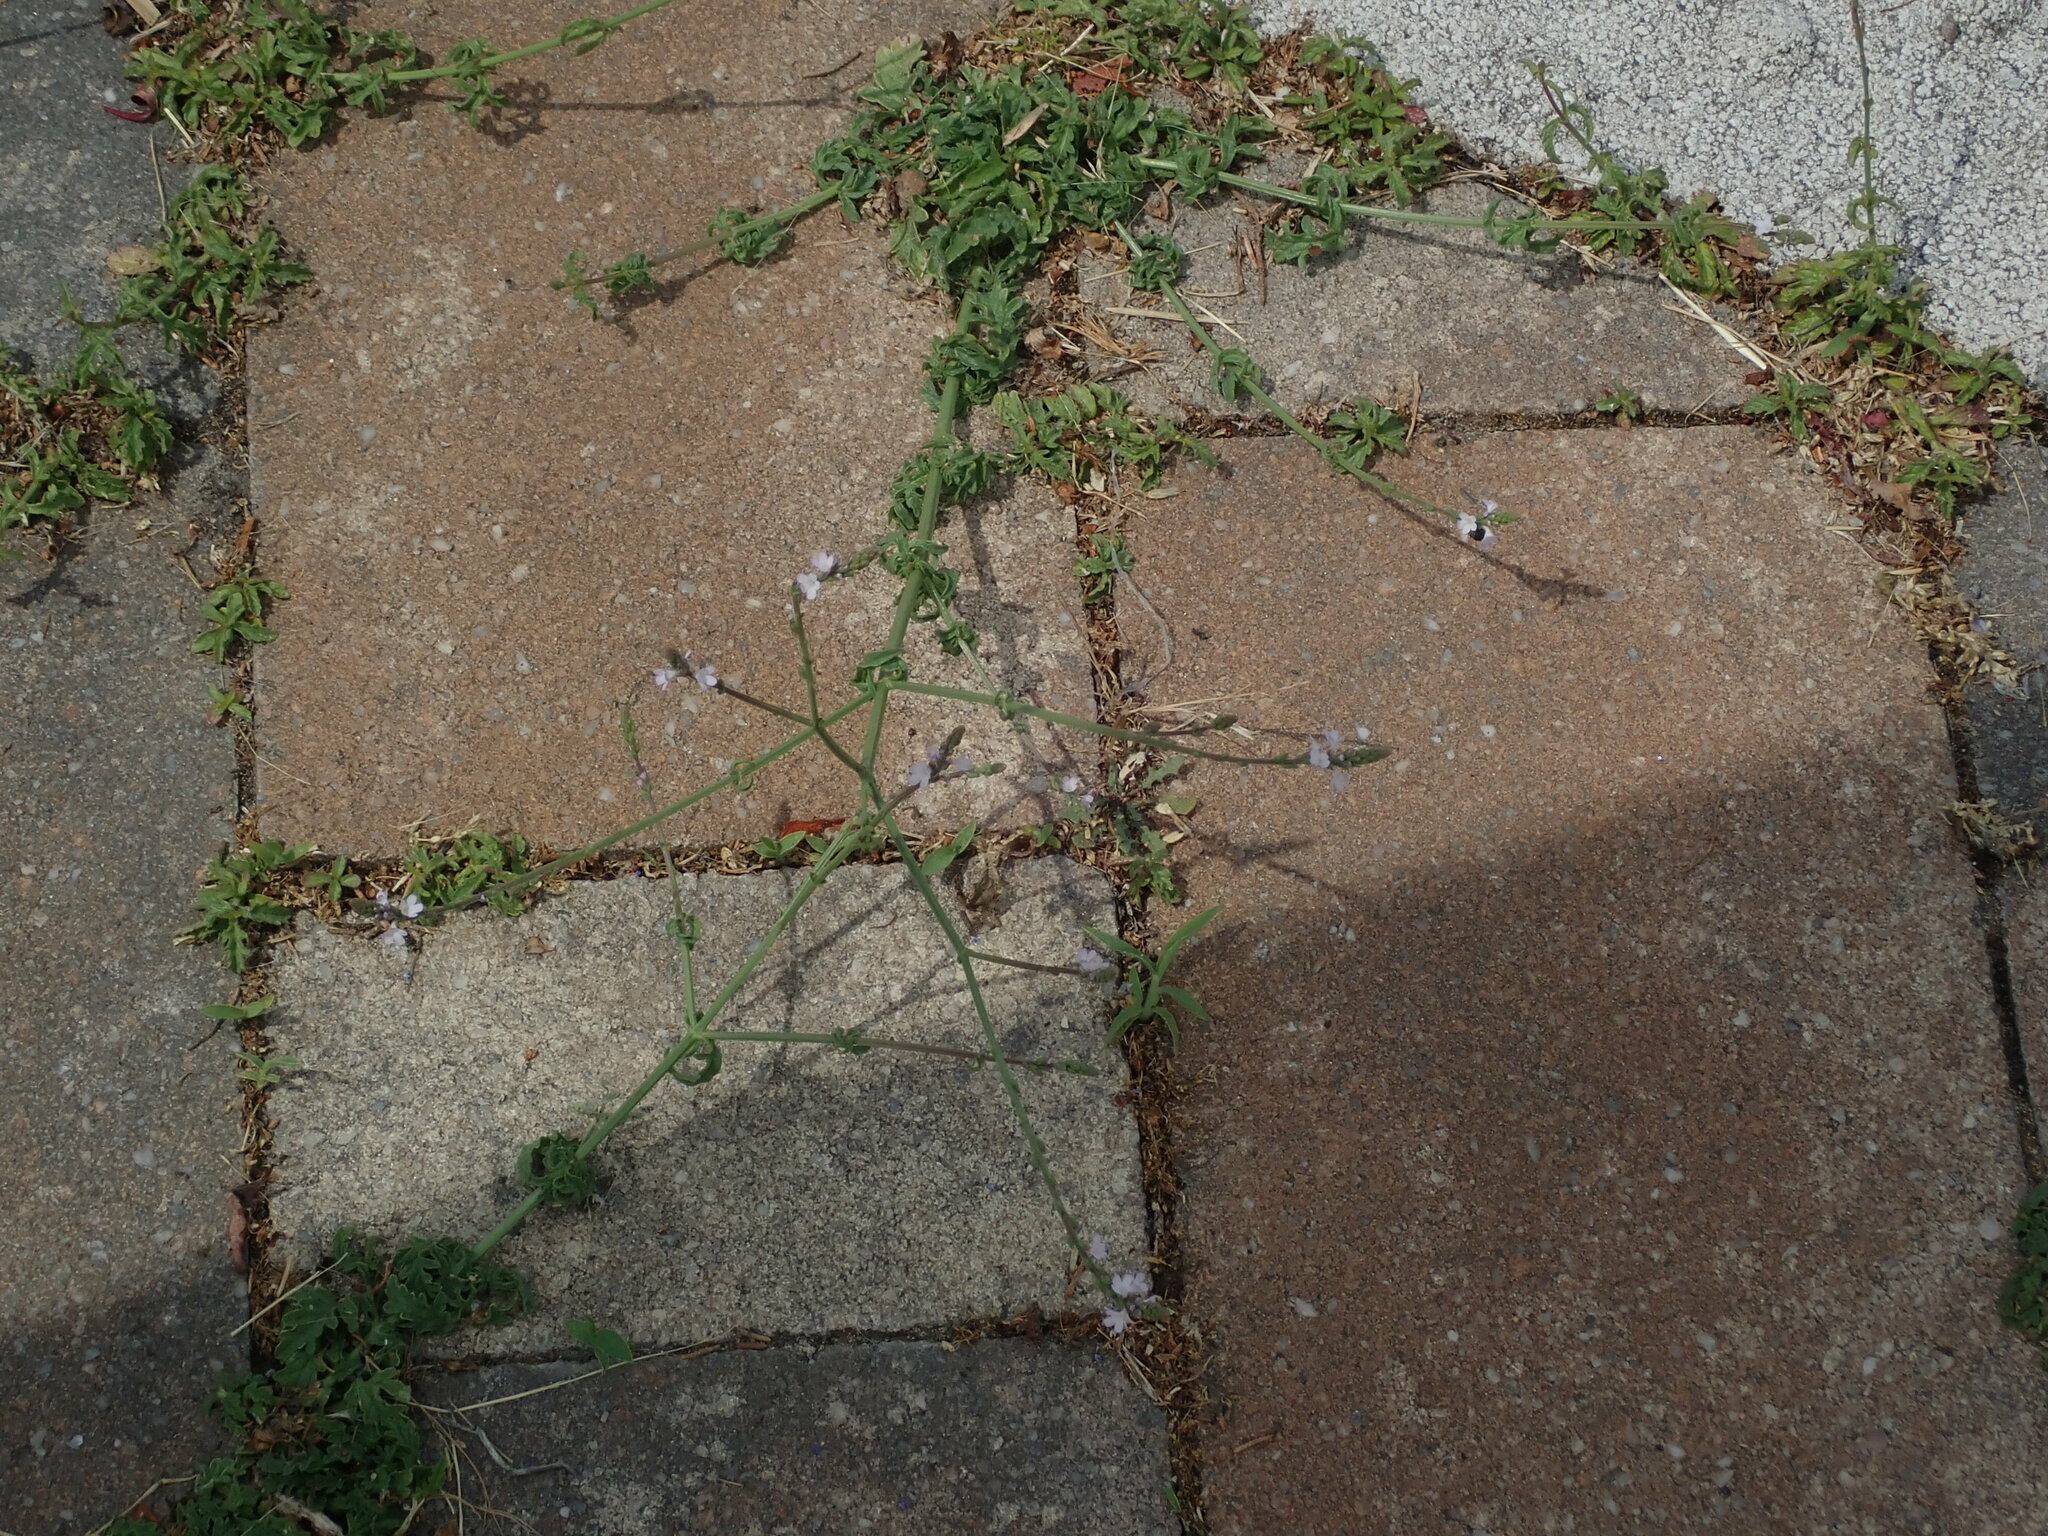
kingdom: Plantae
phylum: Tracheophyta
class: Magnoliopsida
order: Lamiales
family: Verbenaceae
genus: Verbena
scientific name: Verbena officinalis
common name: Vervain
